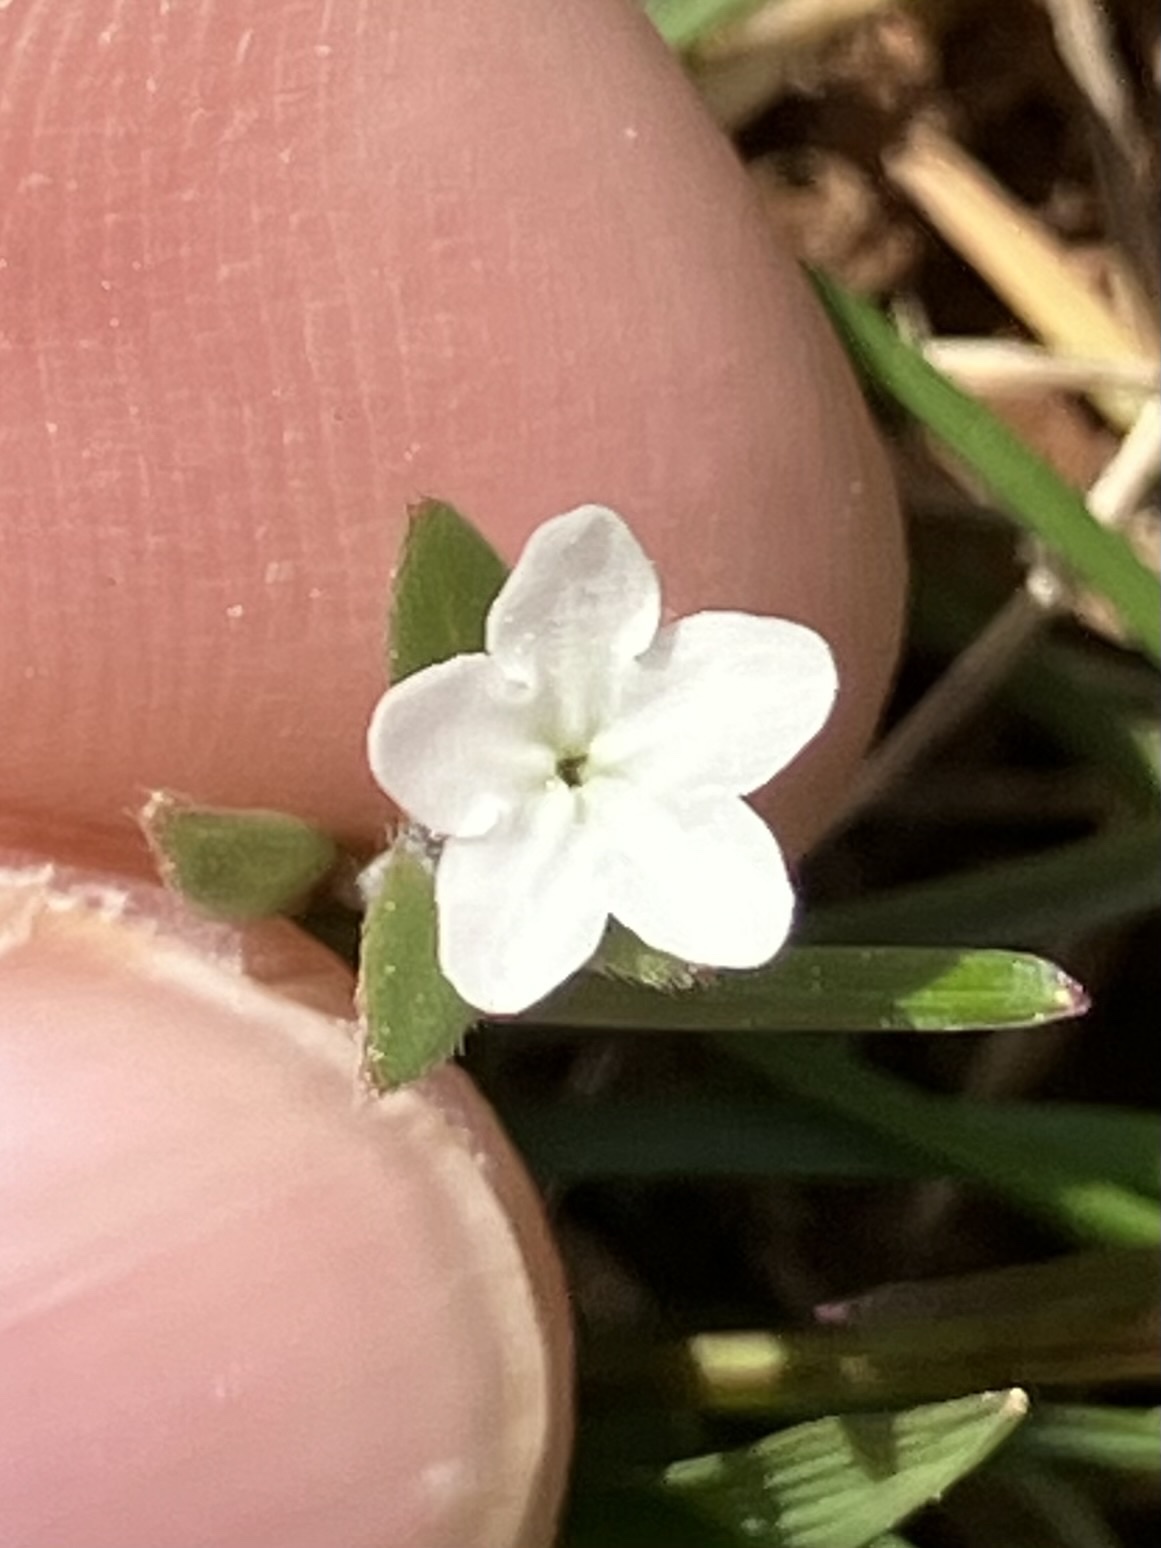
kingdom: Plantae
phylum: Tracheophyta
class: Magnoliopsida
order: Boraginales
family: Boraginaceae
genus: Buglossoides
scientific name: Buglossoides arvensis
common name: Corn gromwell
